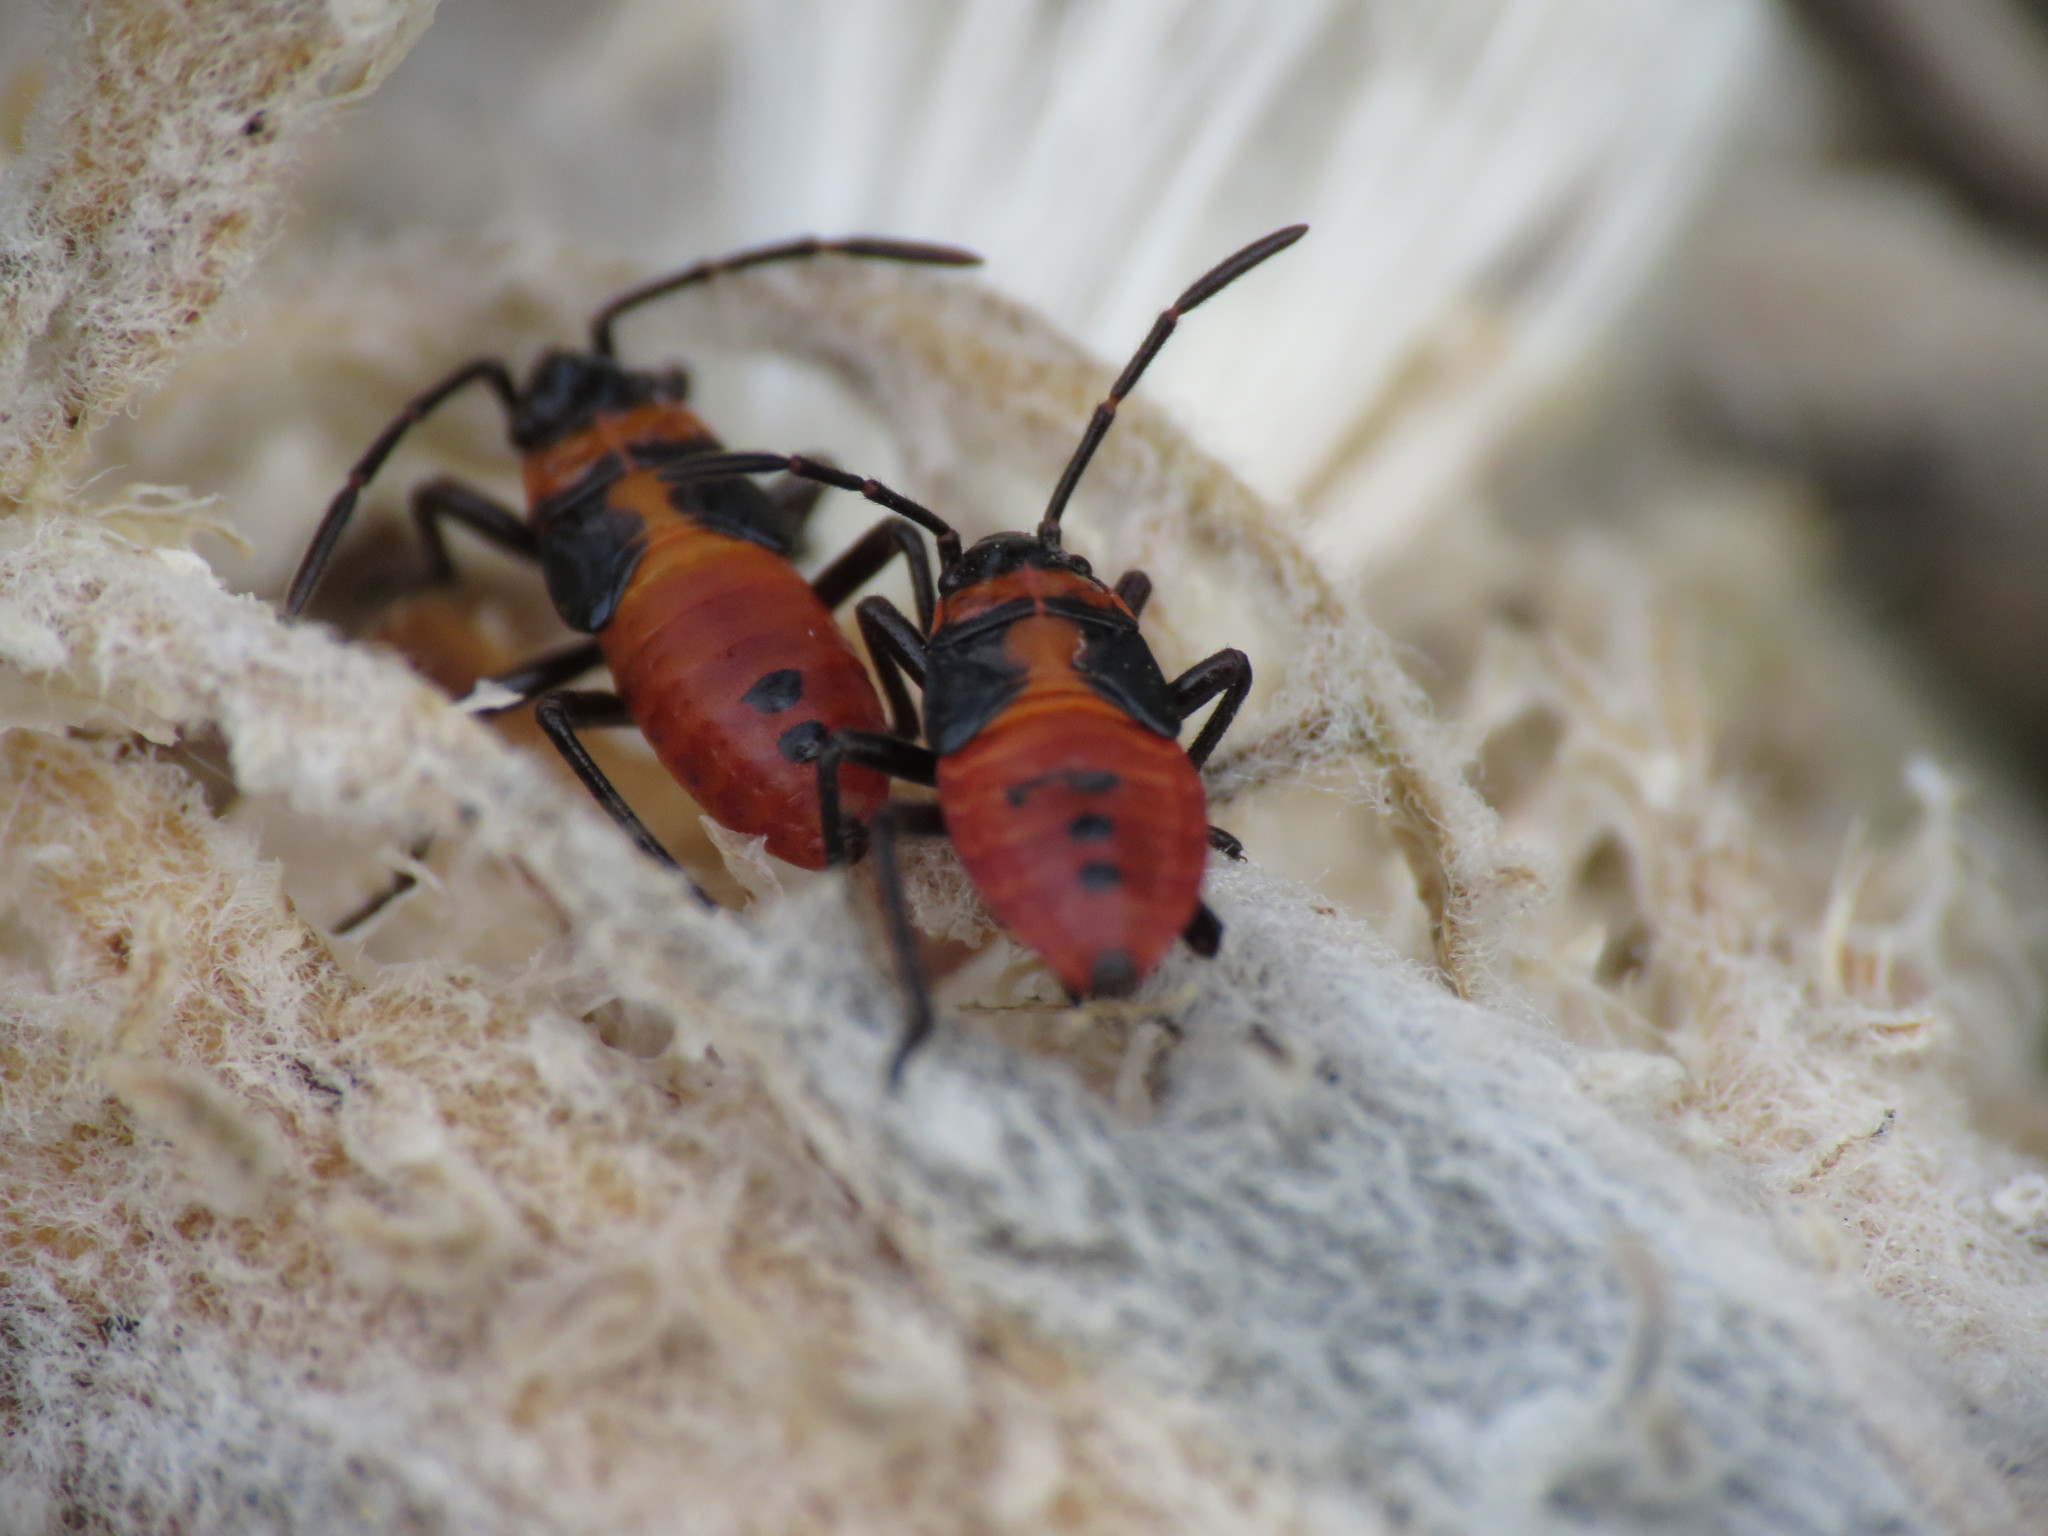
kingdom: Animalia
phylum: Arthropoda
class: Insecta
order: Hemiptera
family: Lygaeidae
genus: Oncopeltus
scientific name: Oncopeltus fasciatus
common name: Large milkweed bug
